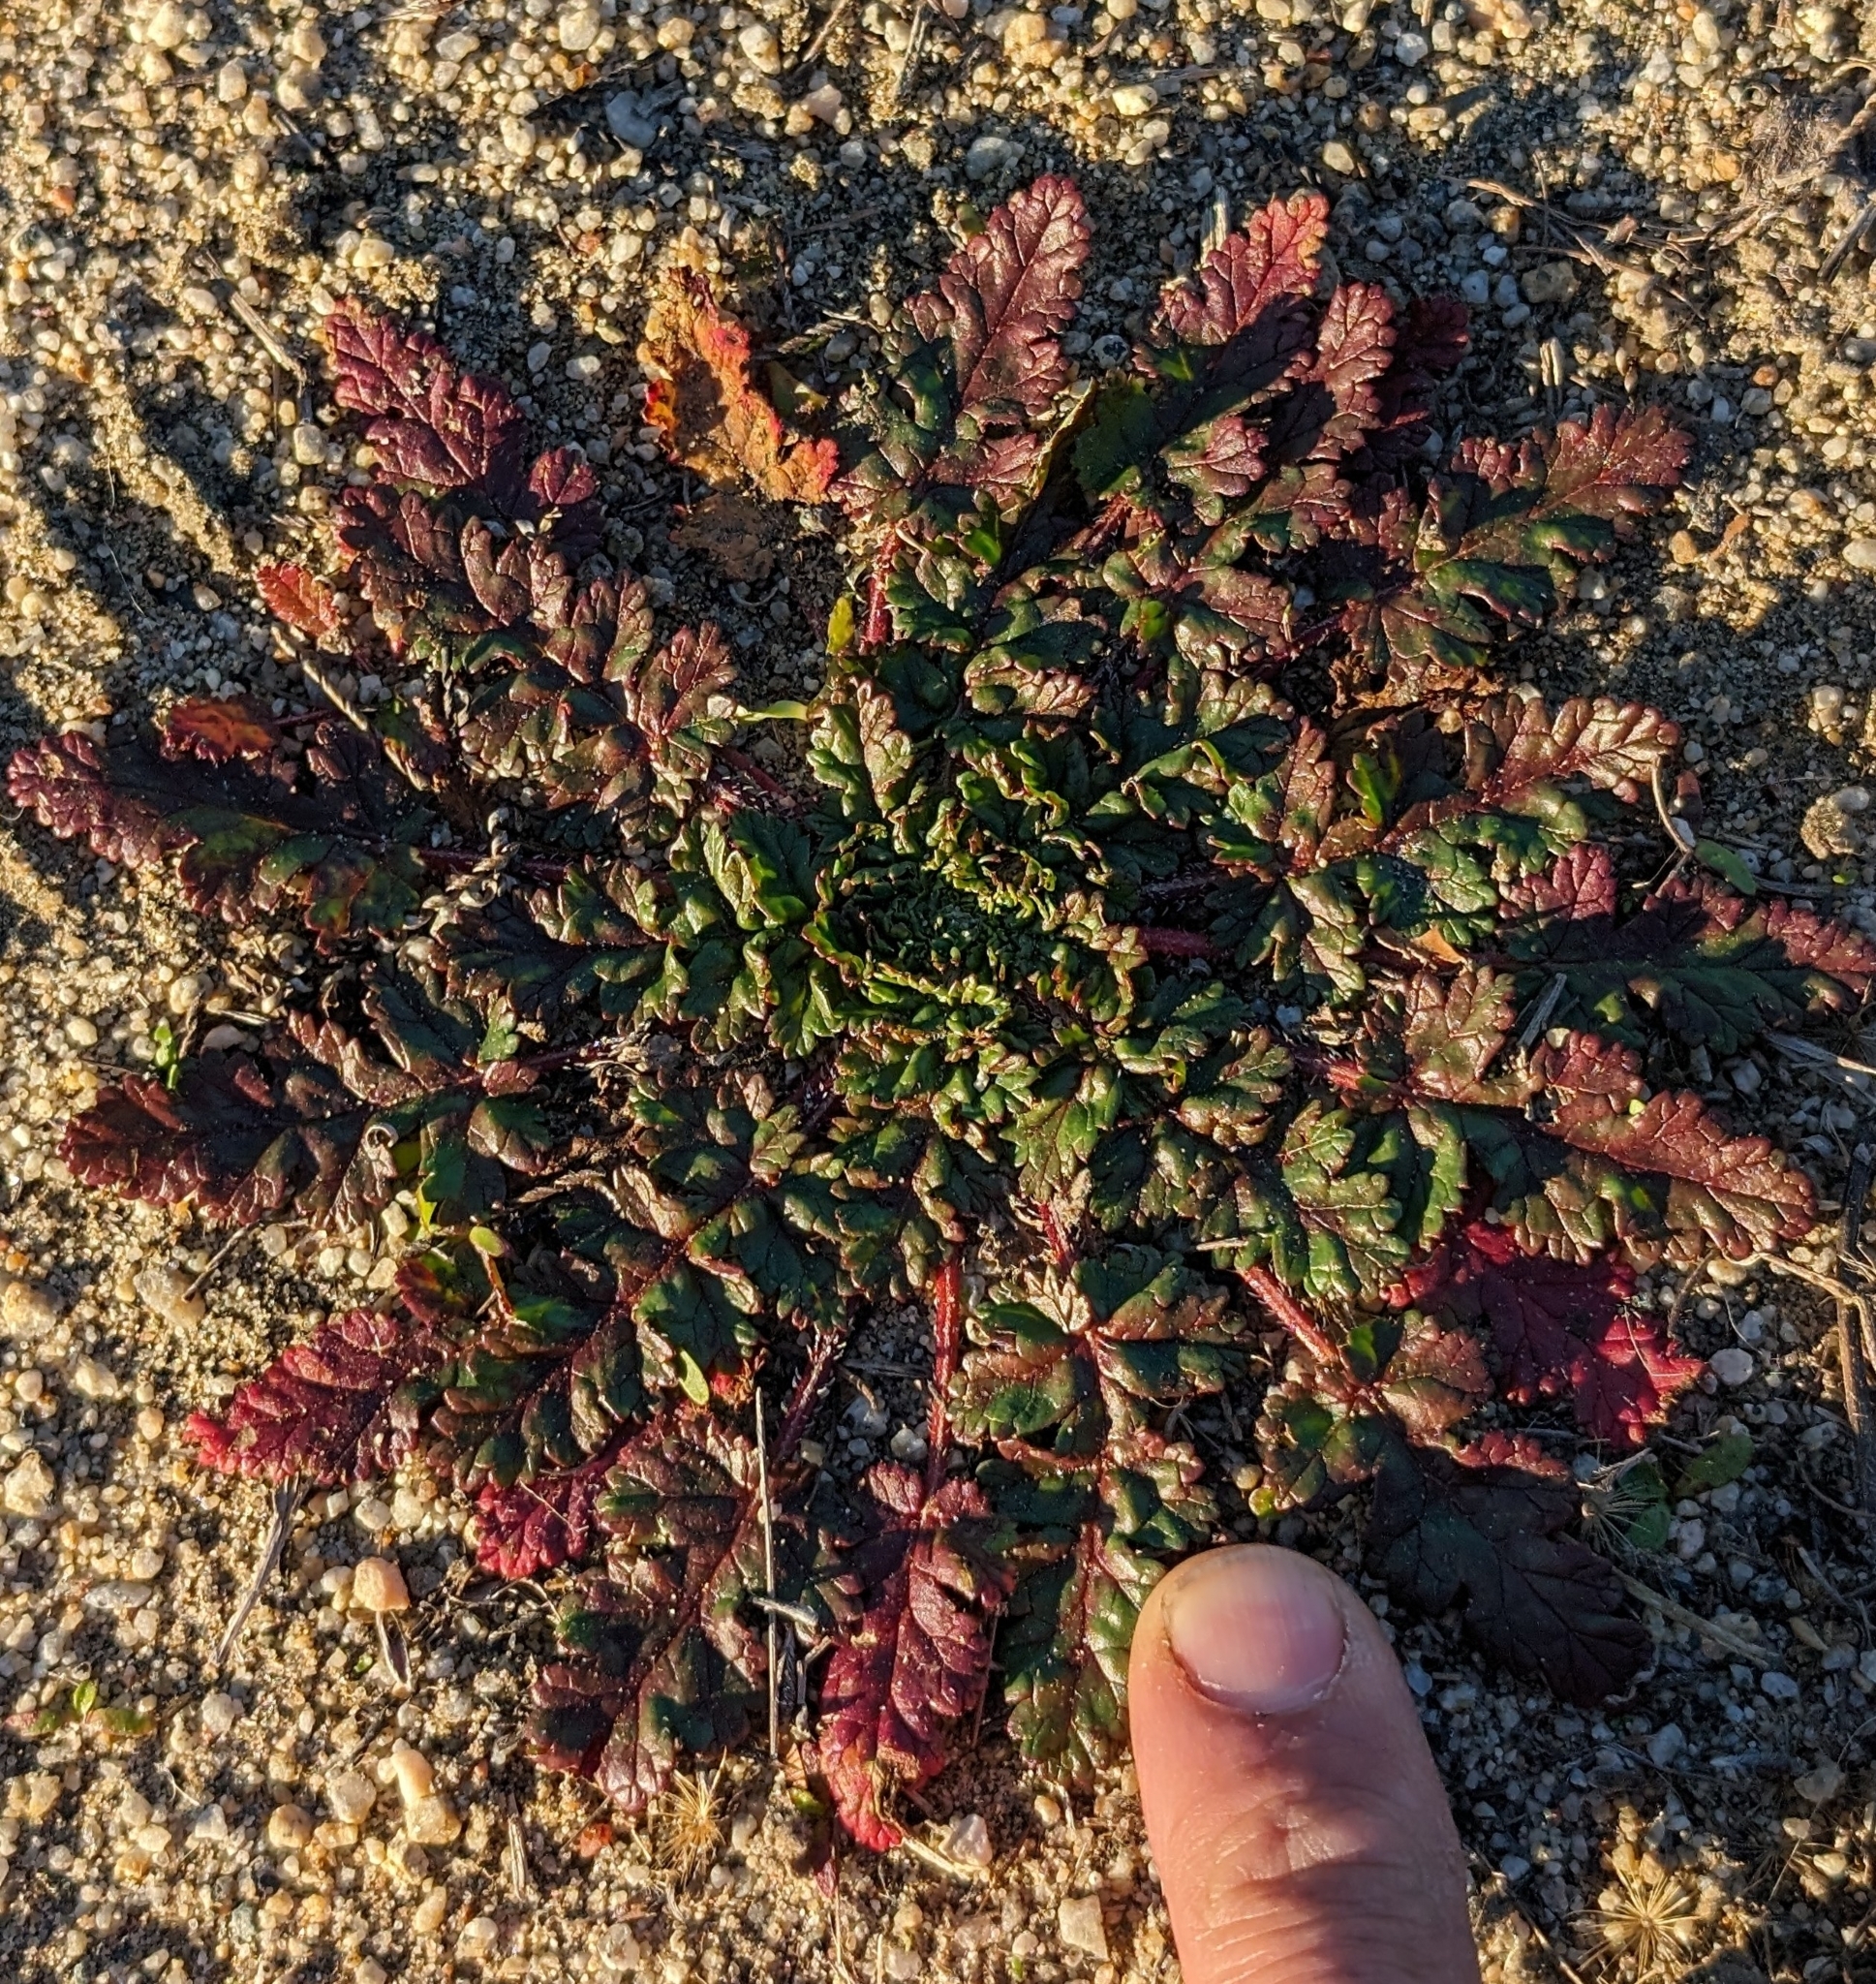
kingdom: Plantae
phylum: Tracheophyta
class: Magnoliopsida
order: Geraniales
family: Geraniaceae
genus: Erodium
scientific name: Erodium
